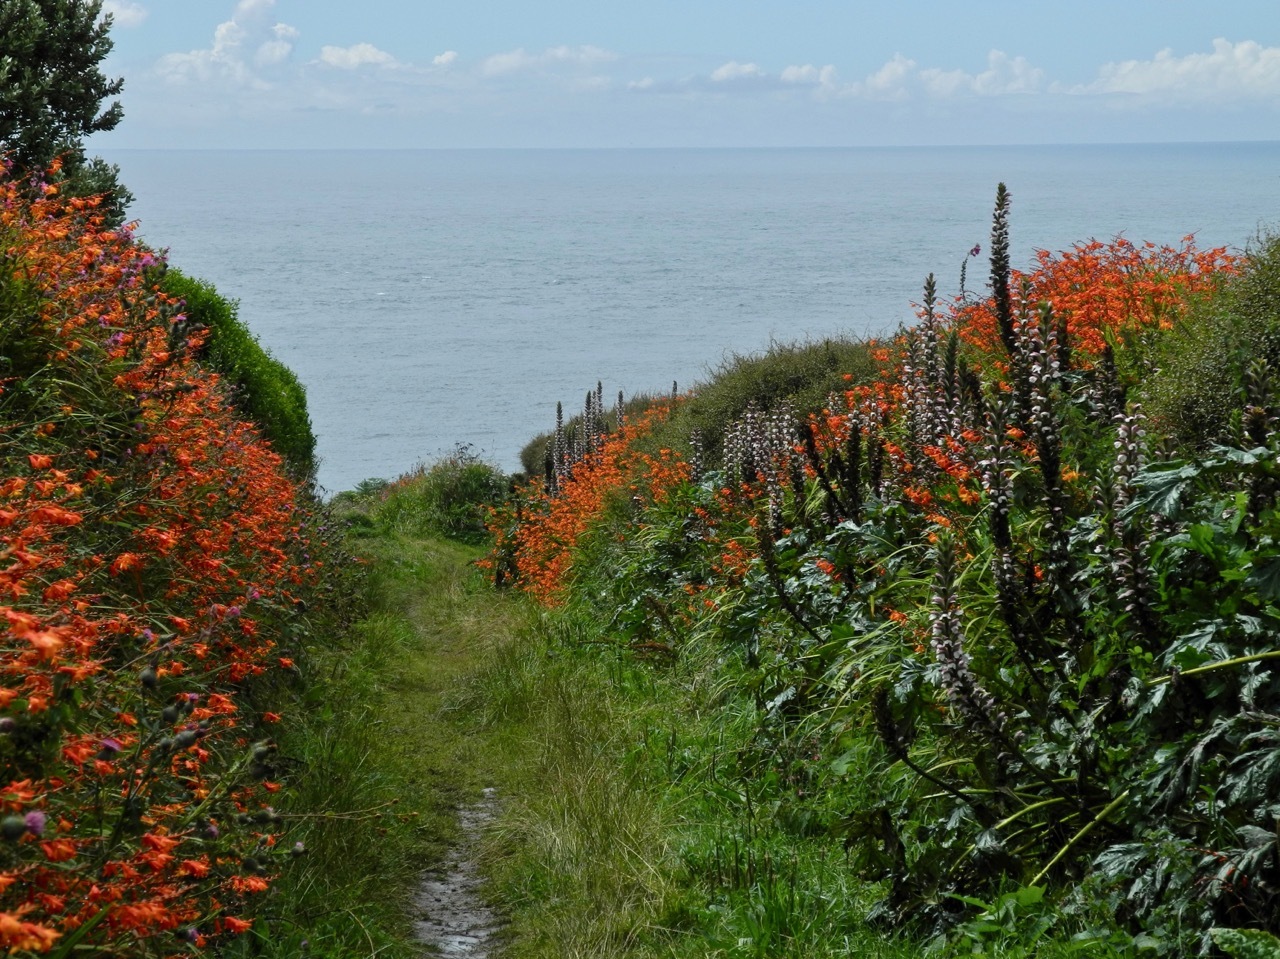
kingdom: Plantae
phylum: Tracheophyta
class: Magnoliopsida
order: Lamiales
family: Acanthaceae
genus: Acanthus
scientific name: Acanthus mollis
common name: Bear's-breech
